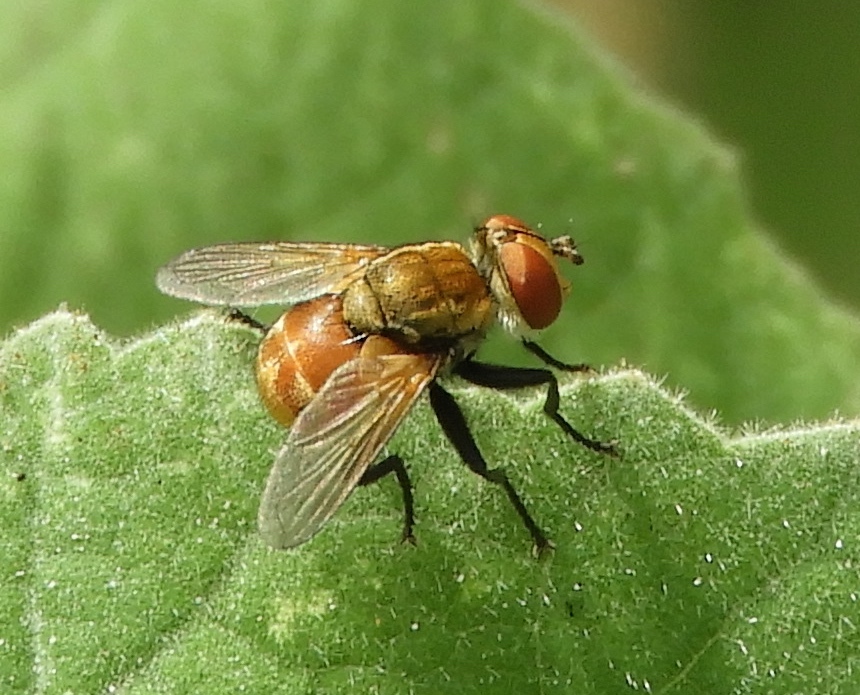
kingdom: Animalia
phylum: Arthropoda
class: Insecta
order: Diptera
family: Tachinidae
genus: Gymnoclytia
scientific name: Gymnoclytia
